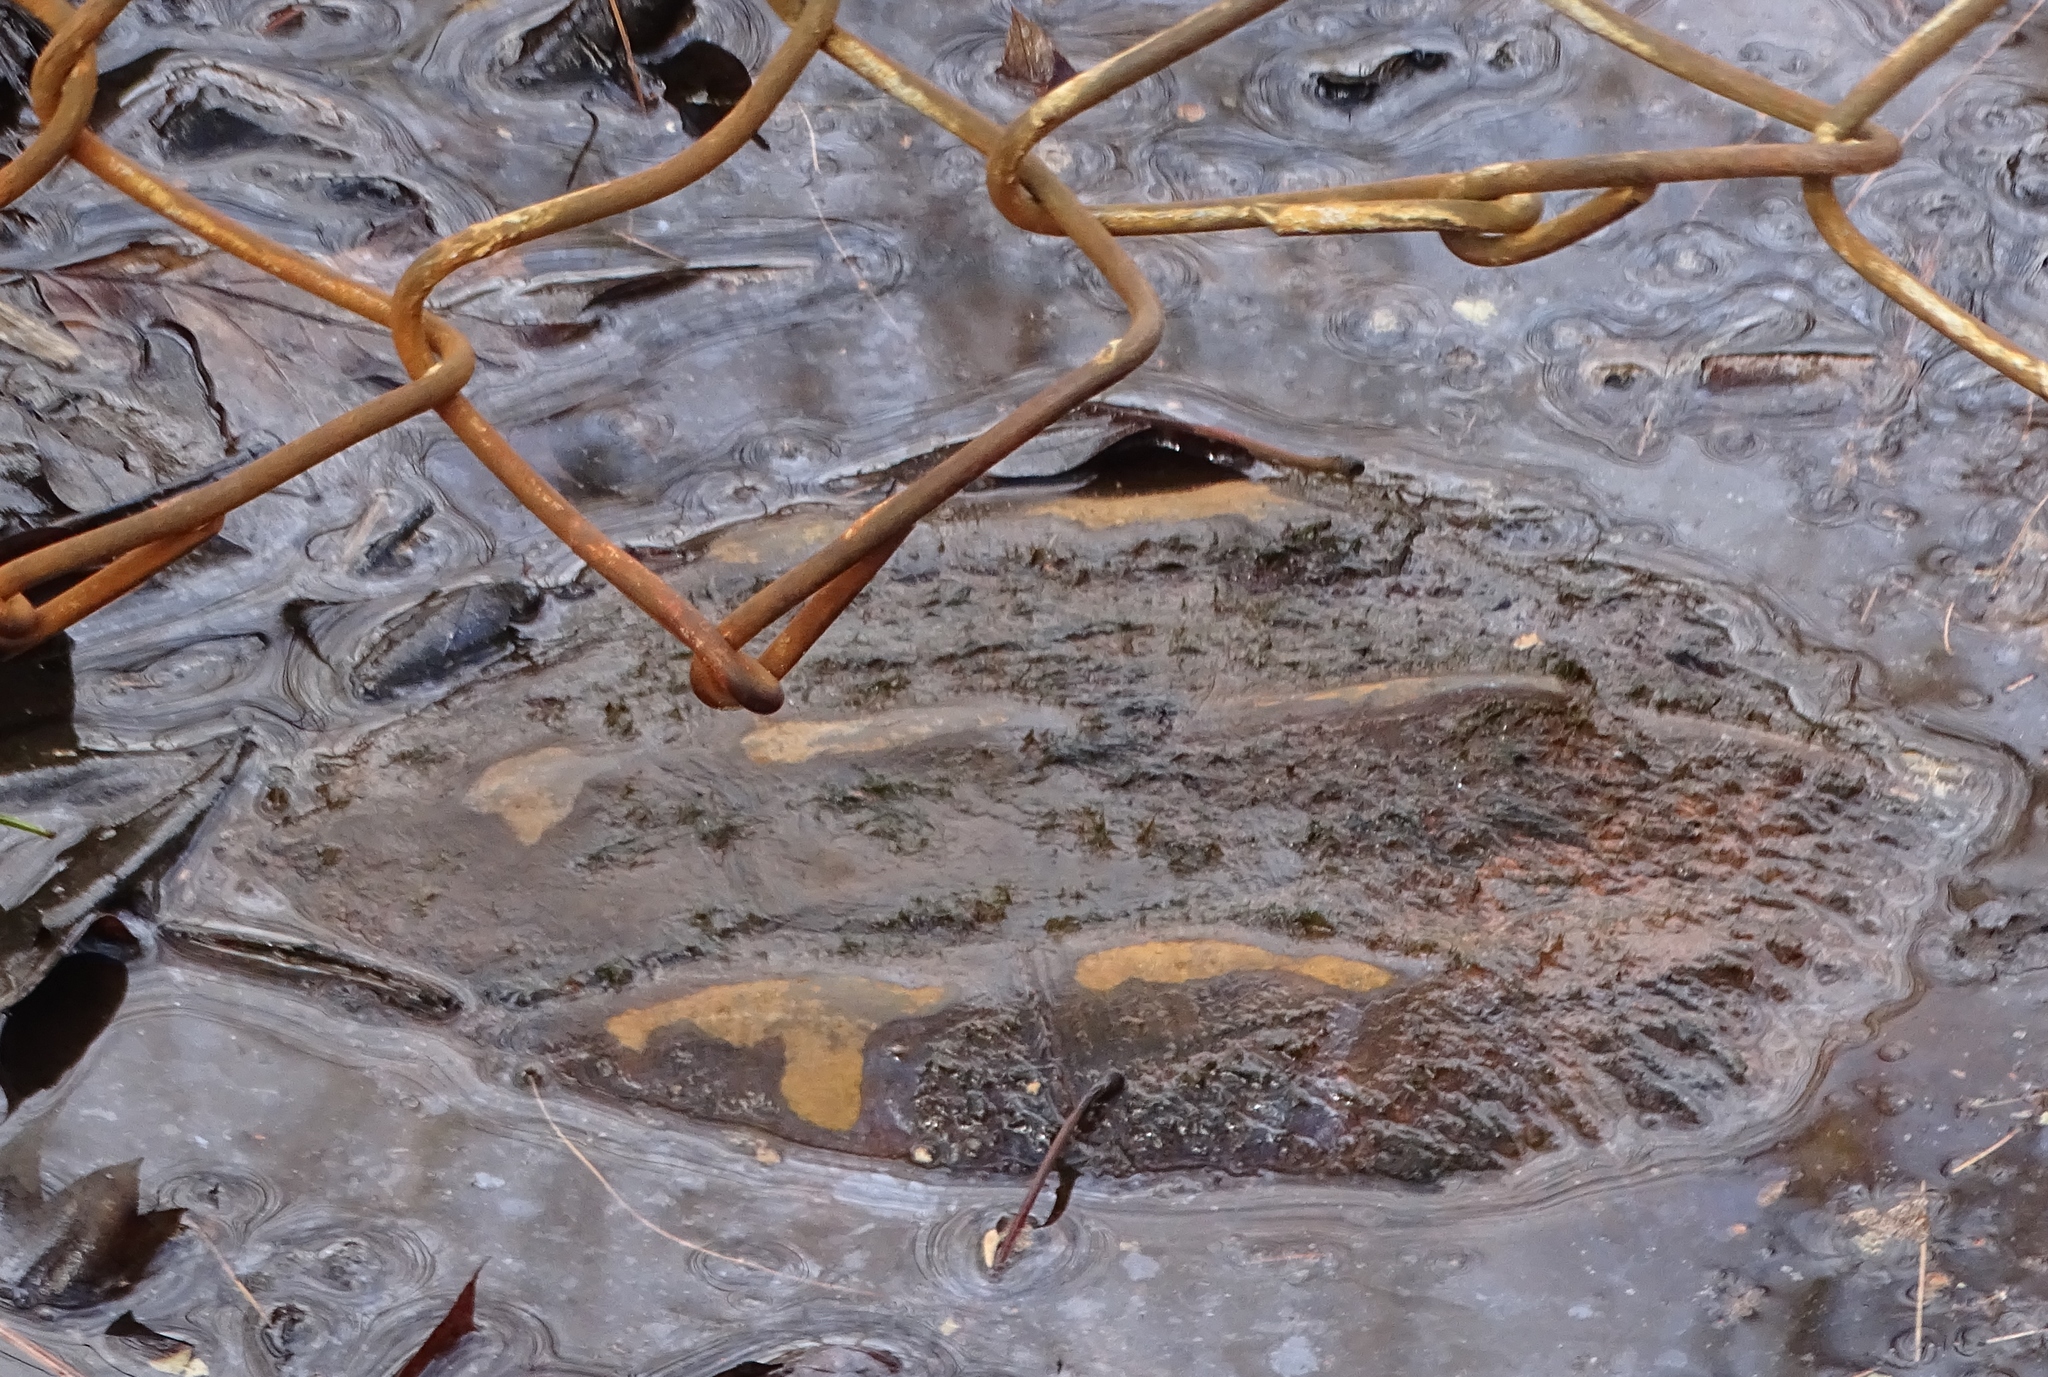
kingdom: Animalia
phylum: Chordata
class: Testudines
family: Chelydridae
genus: Chelydra
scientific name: Chelydra serpentina
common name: Common snapping turtle
